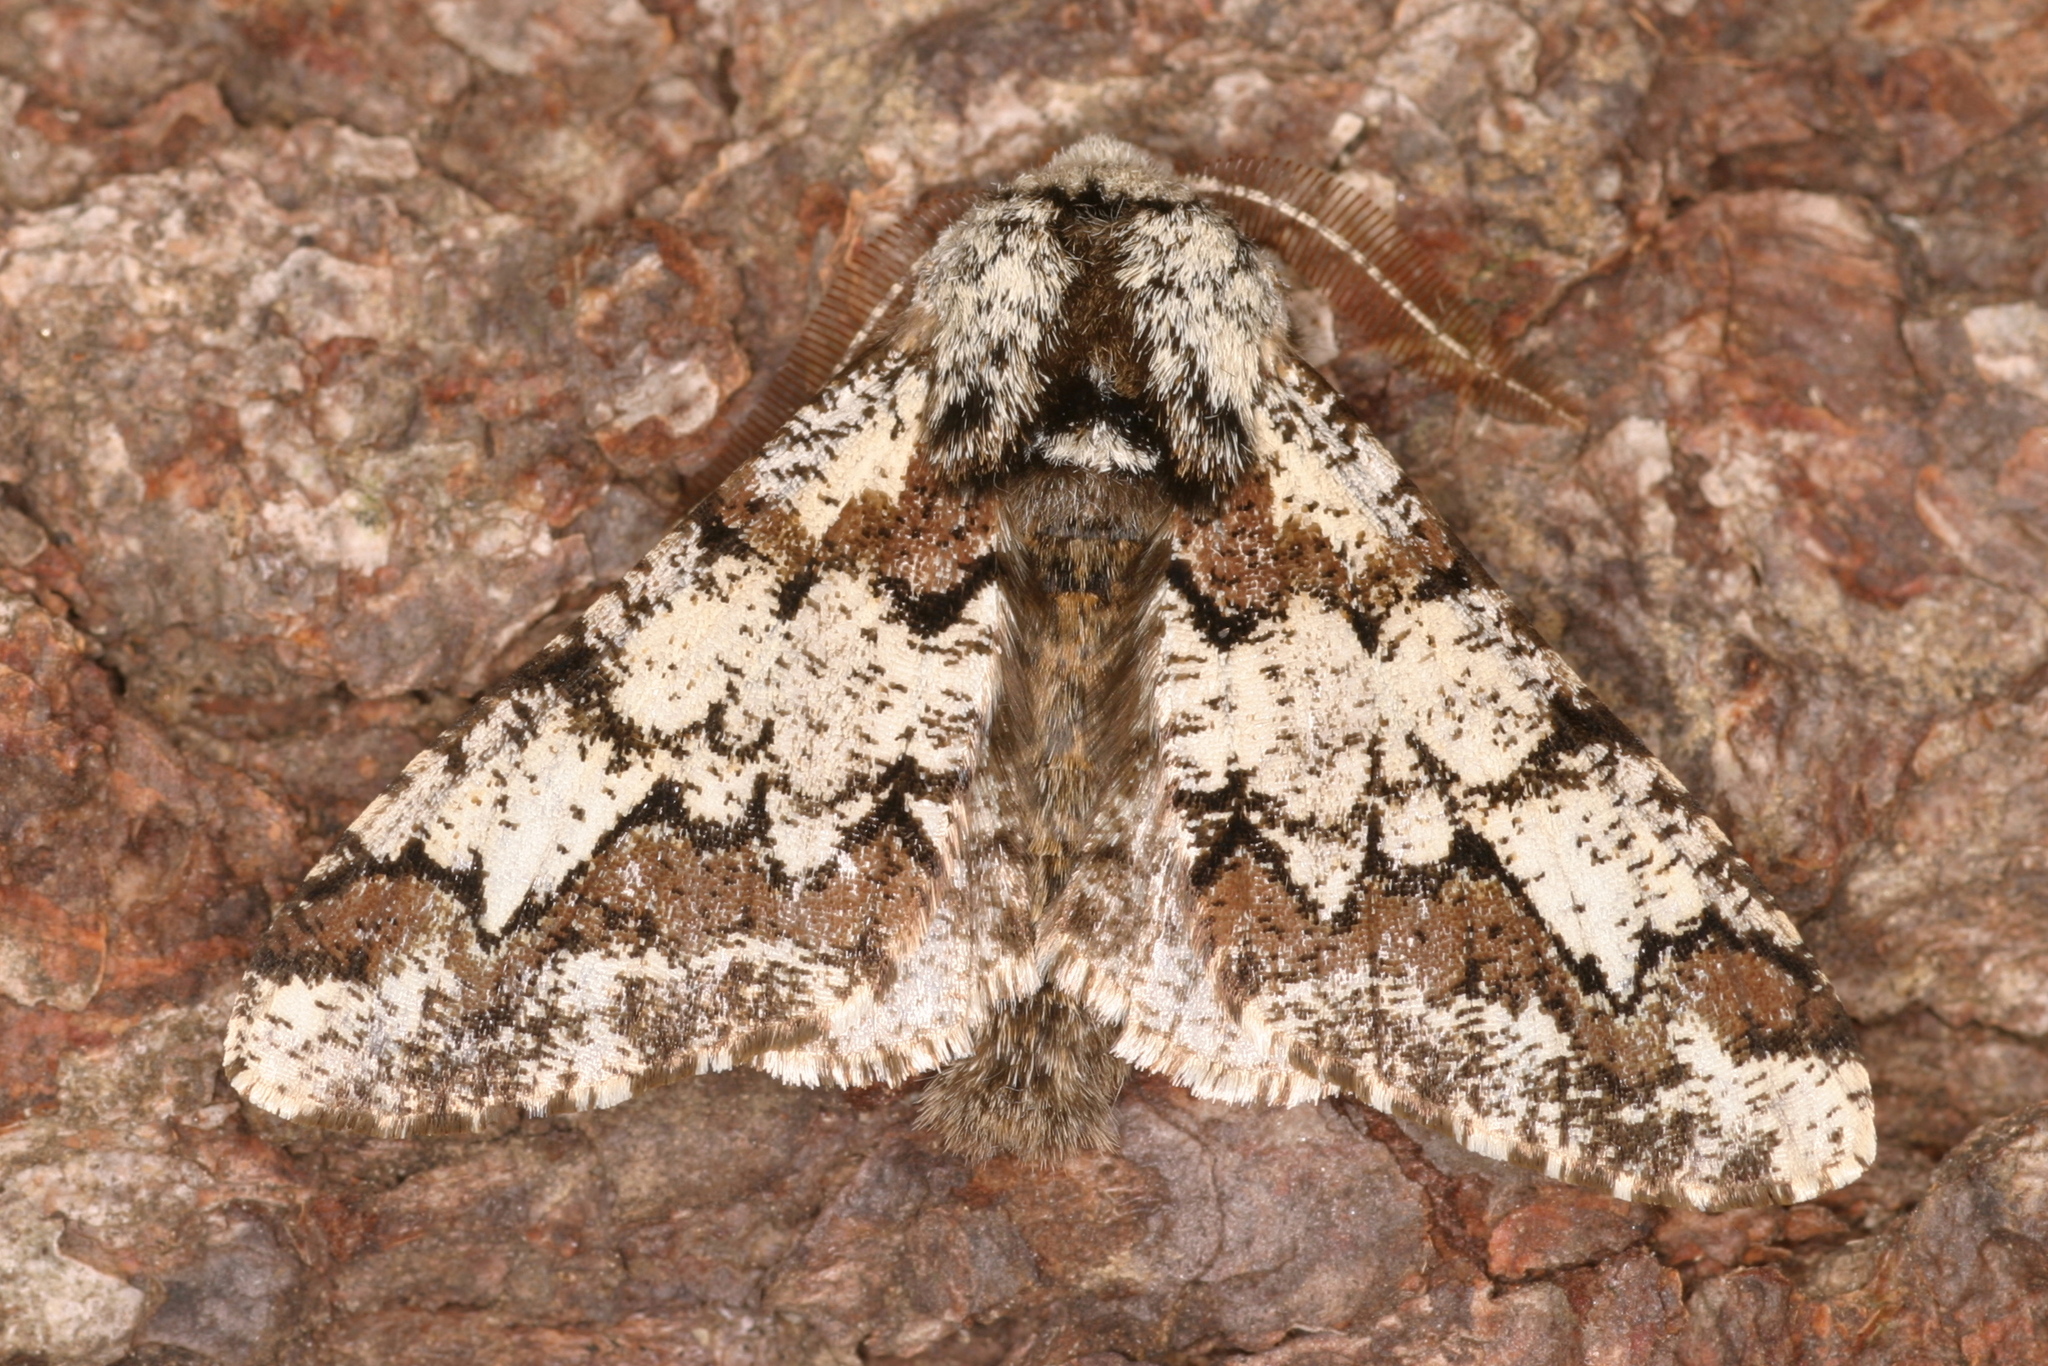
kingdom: Animalia
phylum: Arthropoda
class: Insecta
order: Lepidoptera
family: Geometridae
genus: Biston
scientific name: Biston strataria
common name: Oak beauty
